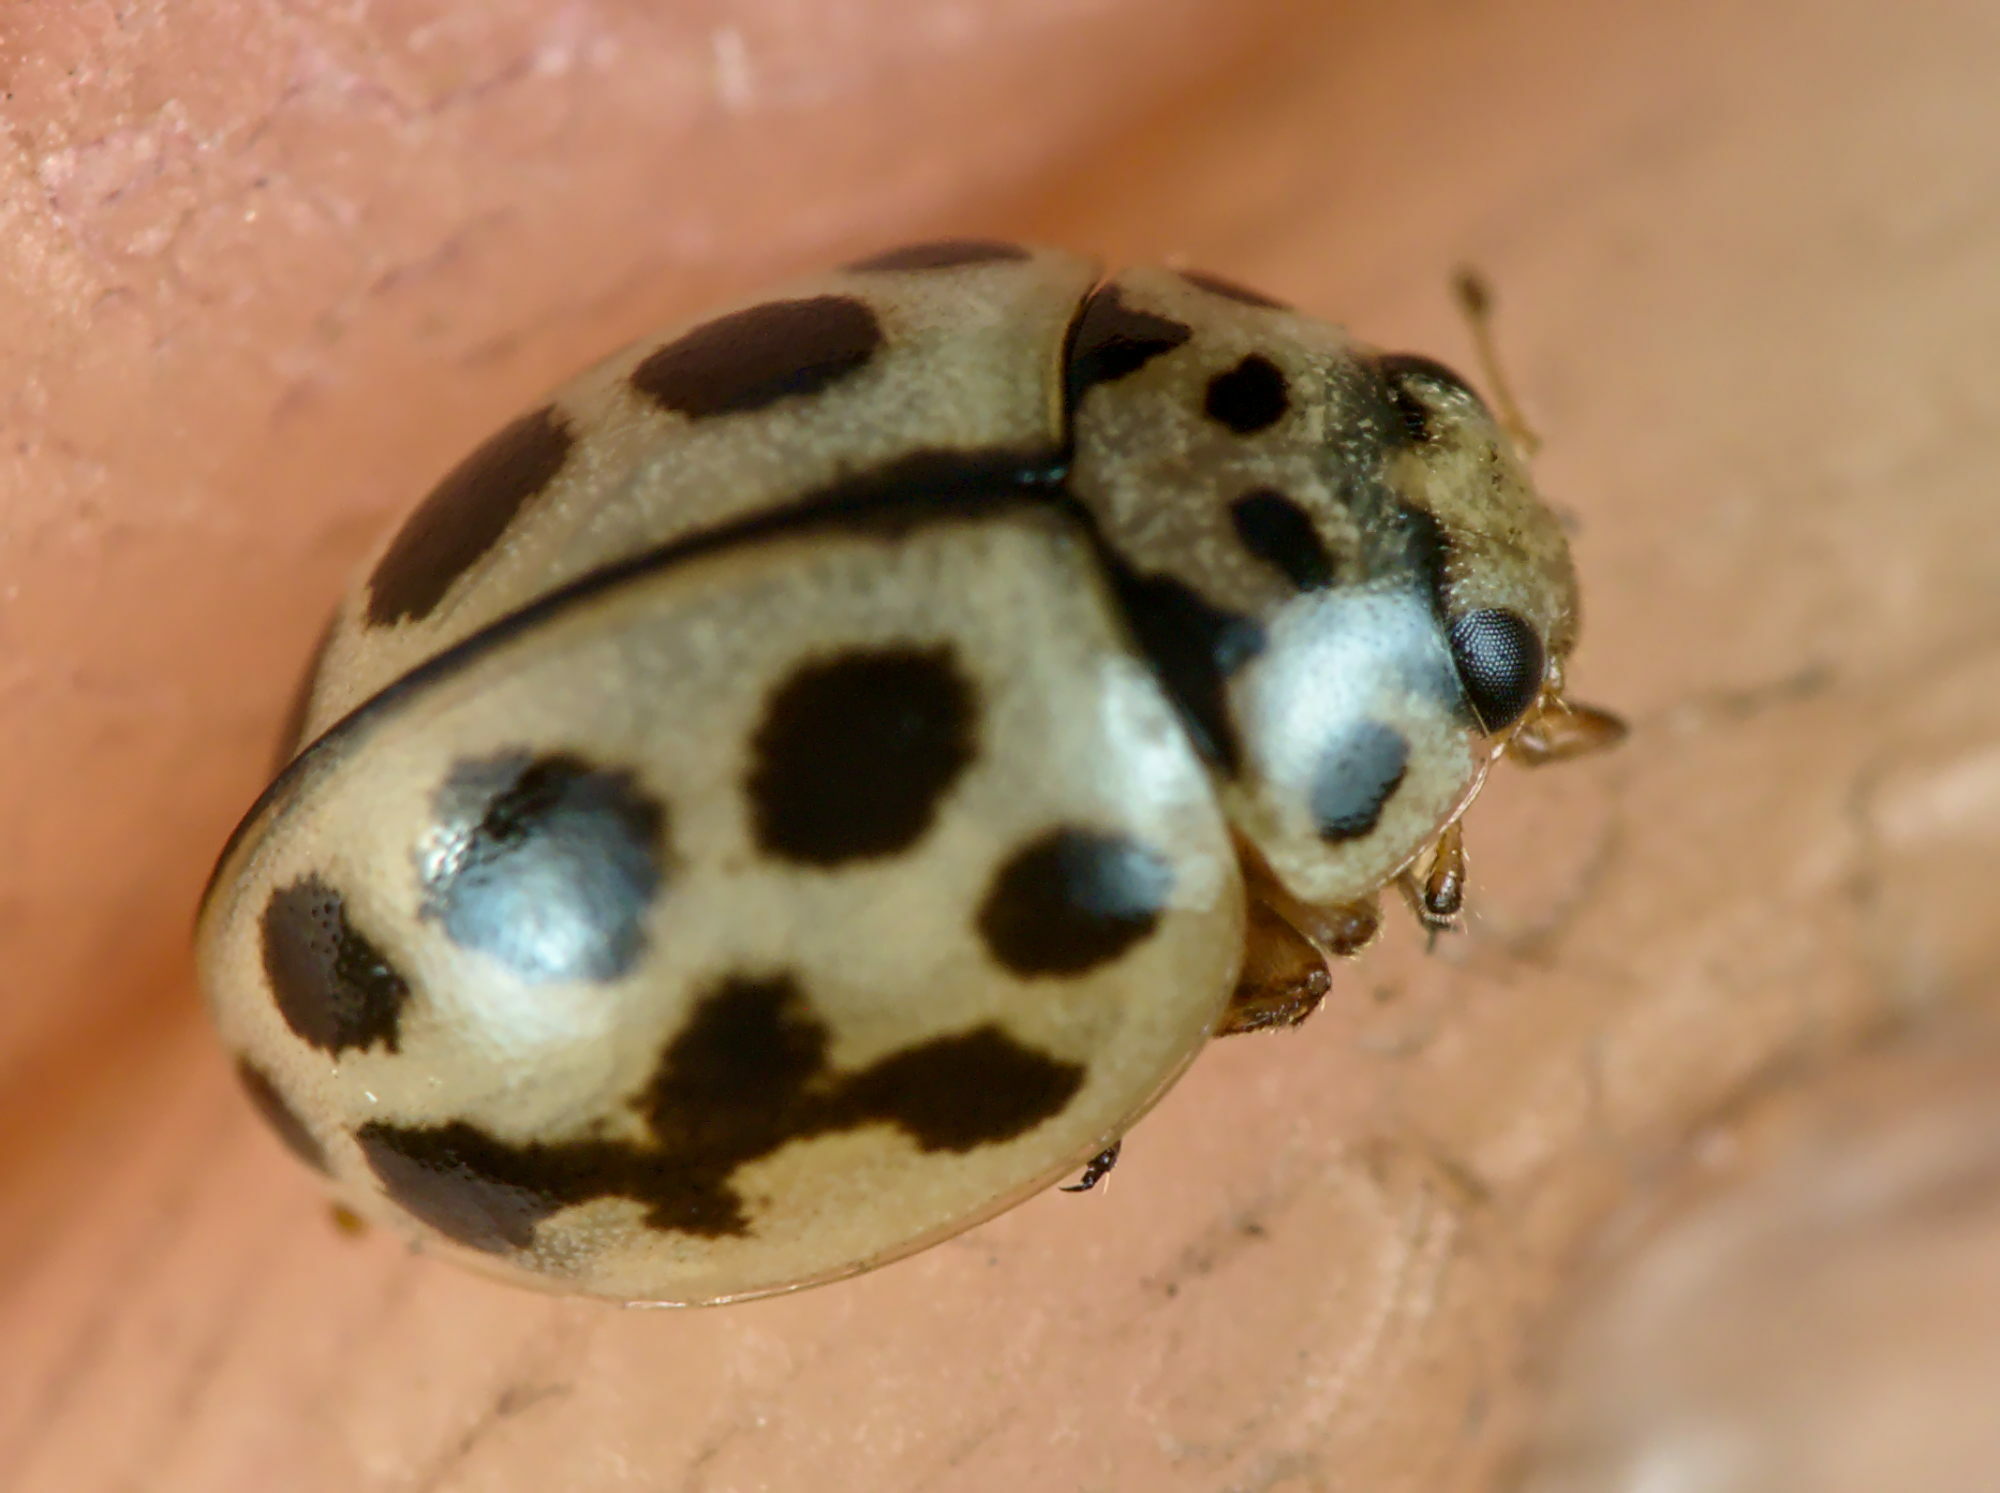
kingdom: Animalia
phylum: Arthropoda
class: Insecta
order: Coleoptera
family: Coccinellidae
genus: Tytthaspis
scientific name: Tytthaspis sedecimpunctata
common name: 16-spot ladybird
